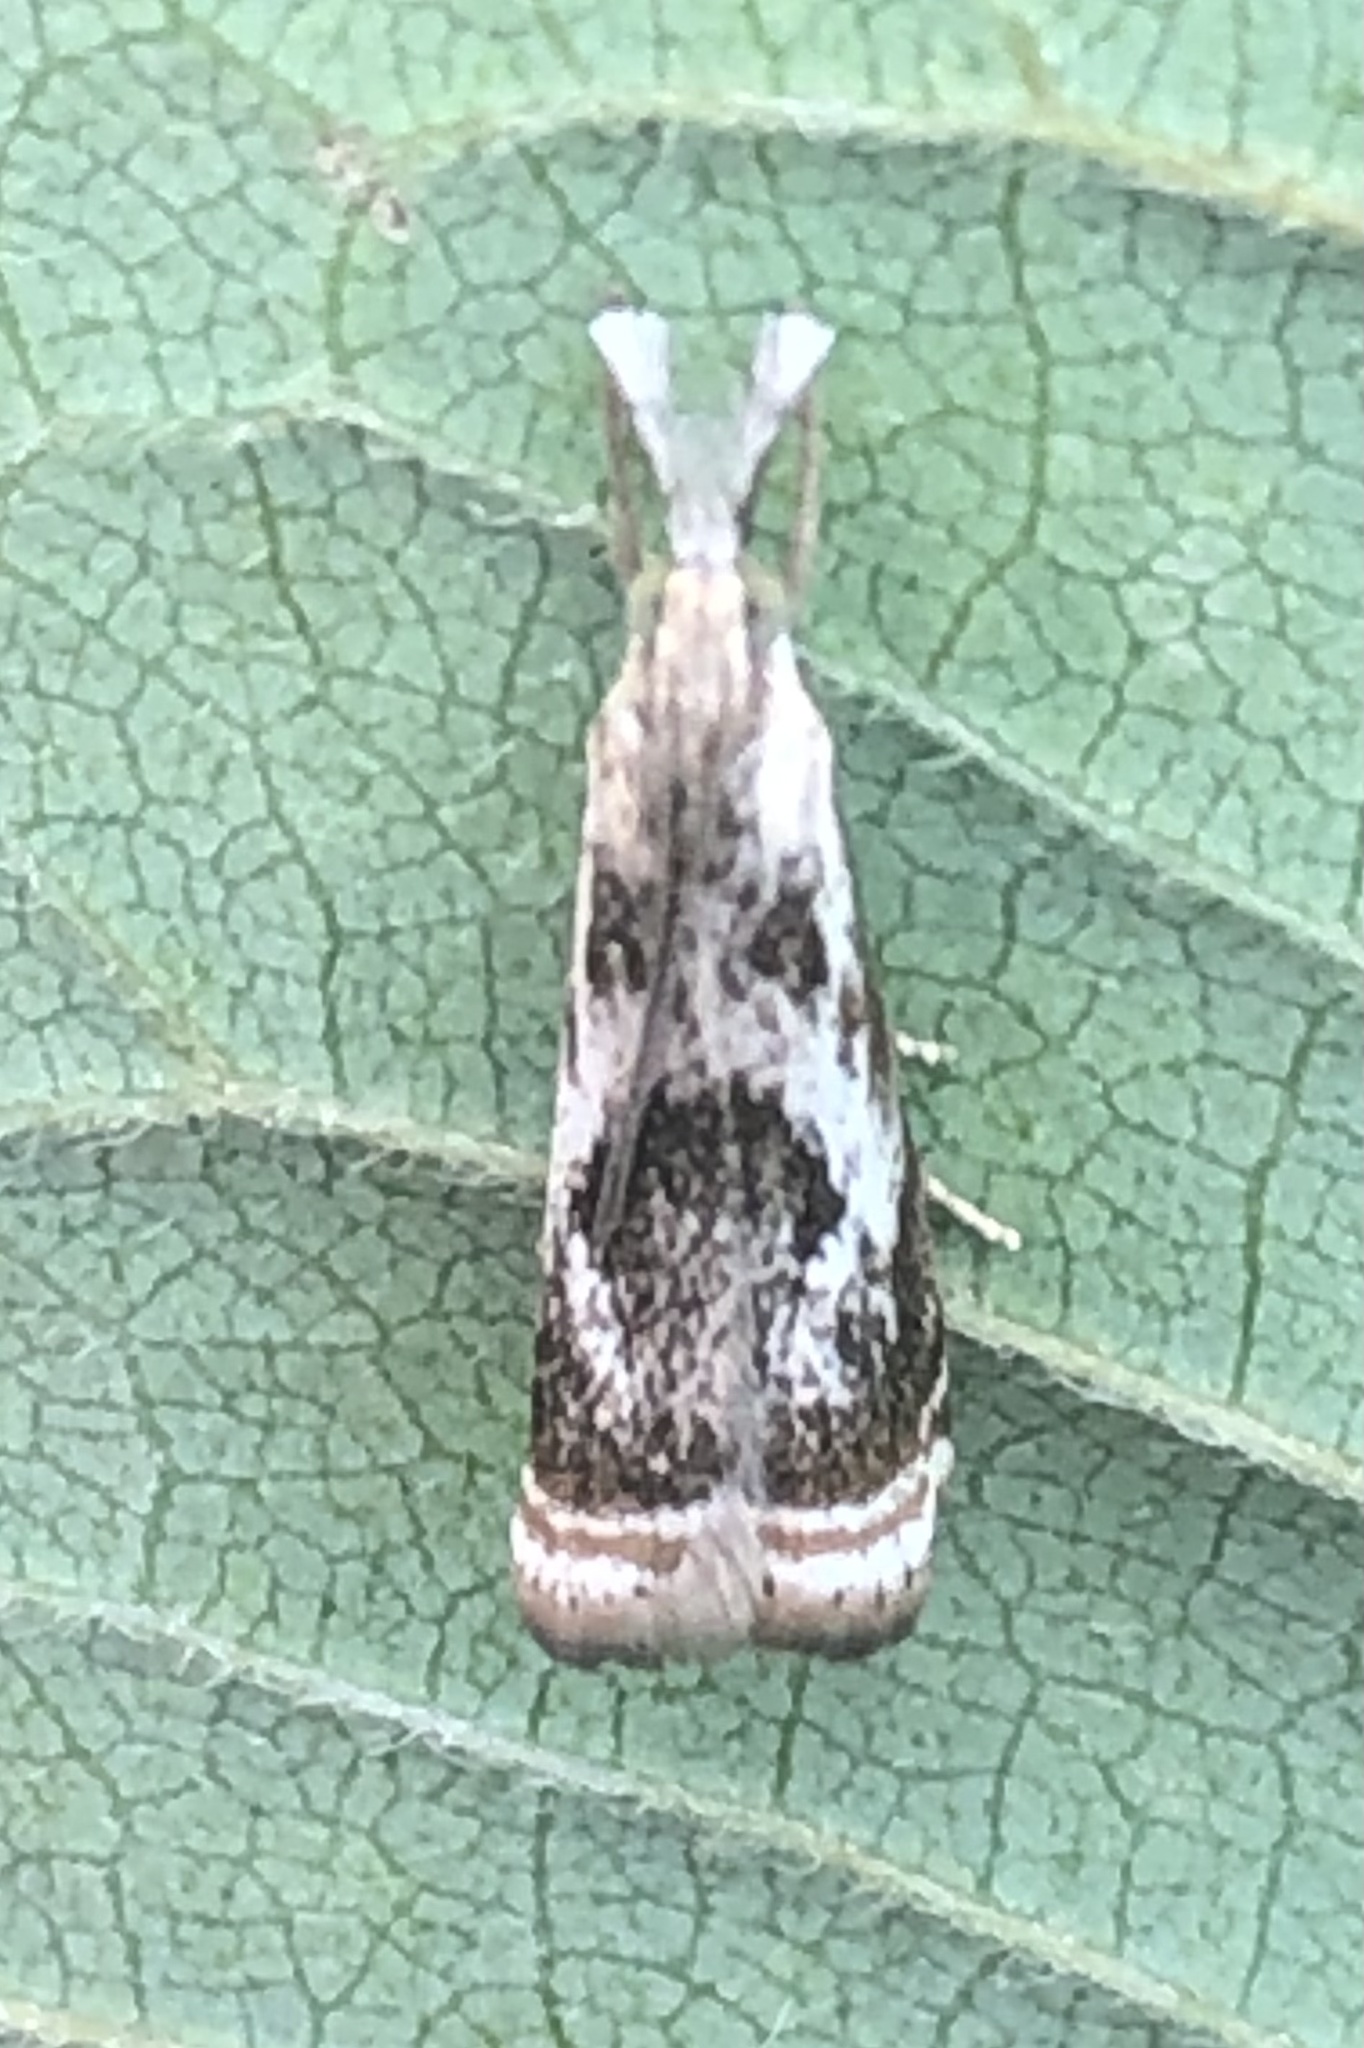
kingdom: Animalia
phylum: Arthropoda
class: Insecta
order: Lepidoptera
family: Crambidae
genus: Microcrambus
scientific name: Microcrambus elegans
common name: Elegant grass-veneer
